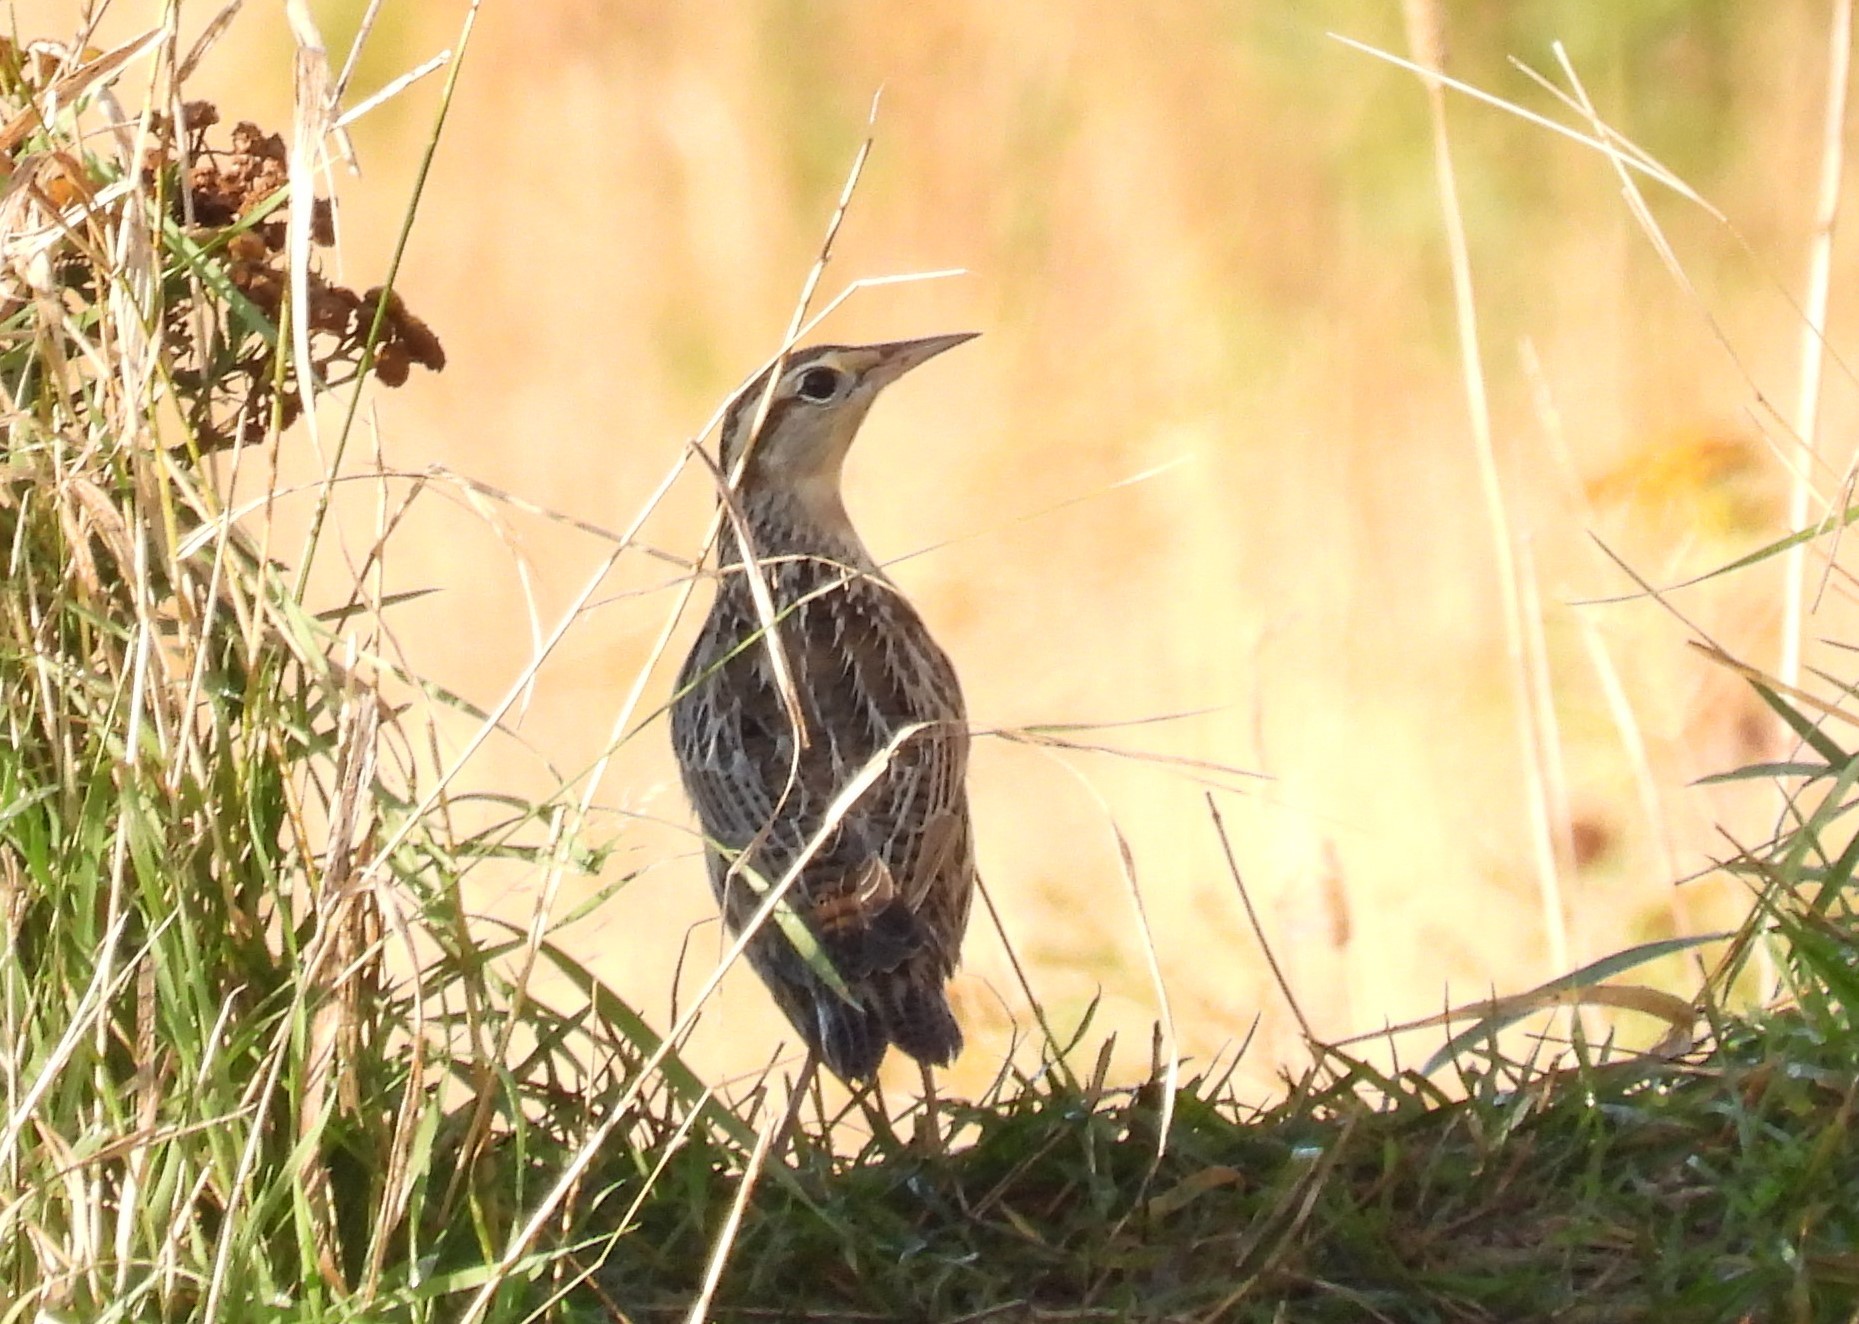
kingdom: Animalia
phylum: Chordata
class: Aves
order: Passeriformes
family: Icteridae
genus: Sturnella
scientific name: Sturnella neglecta
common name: Western meadowlark
